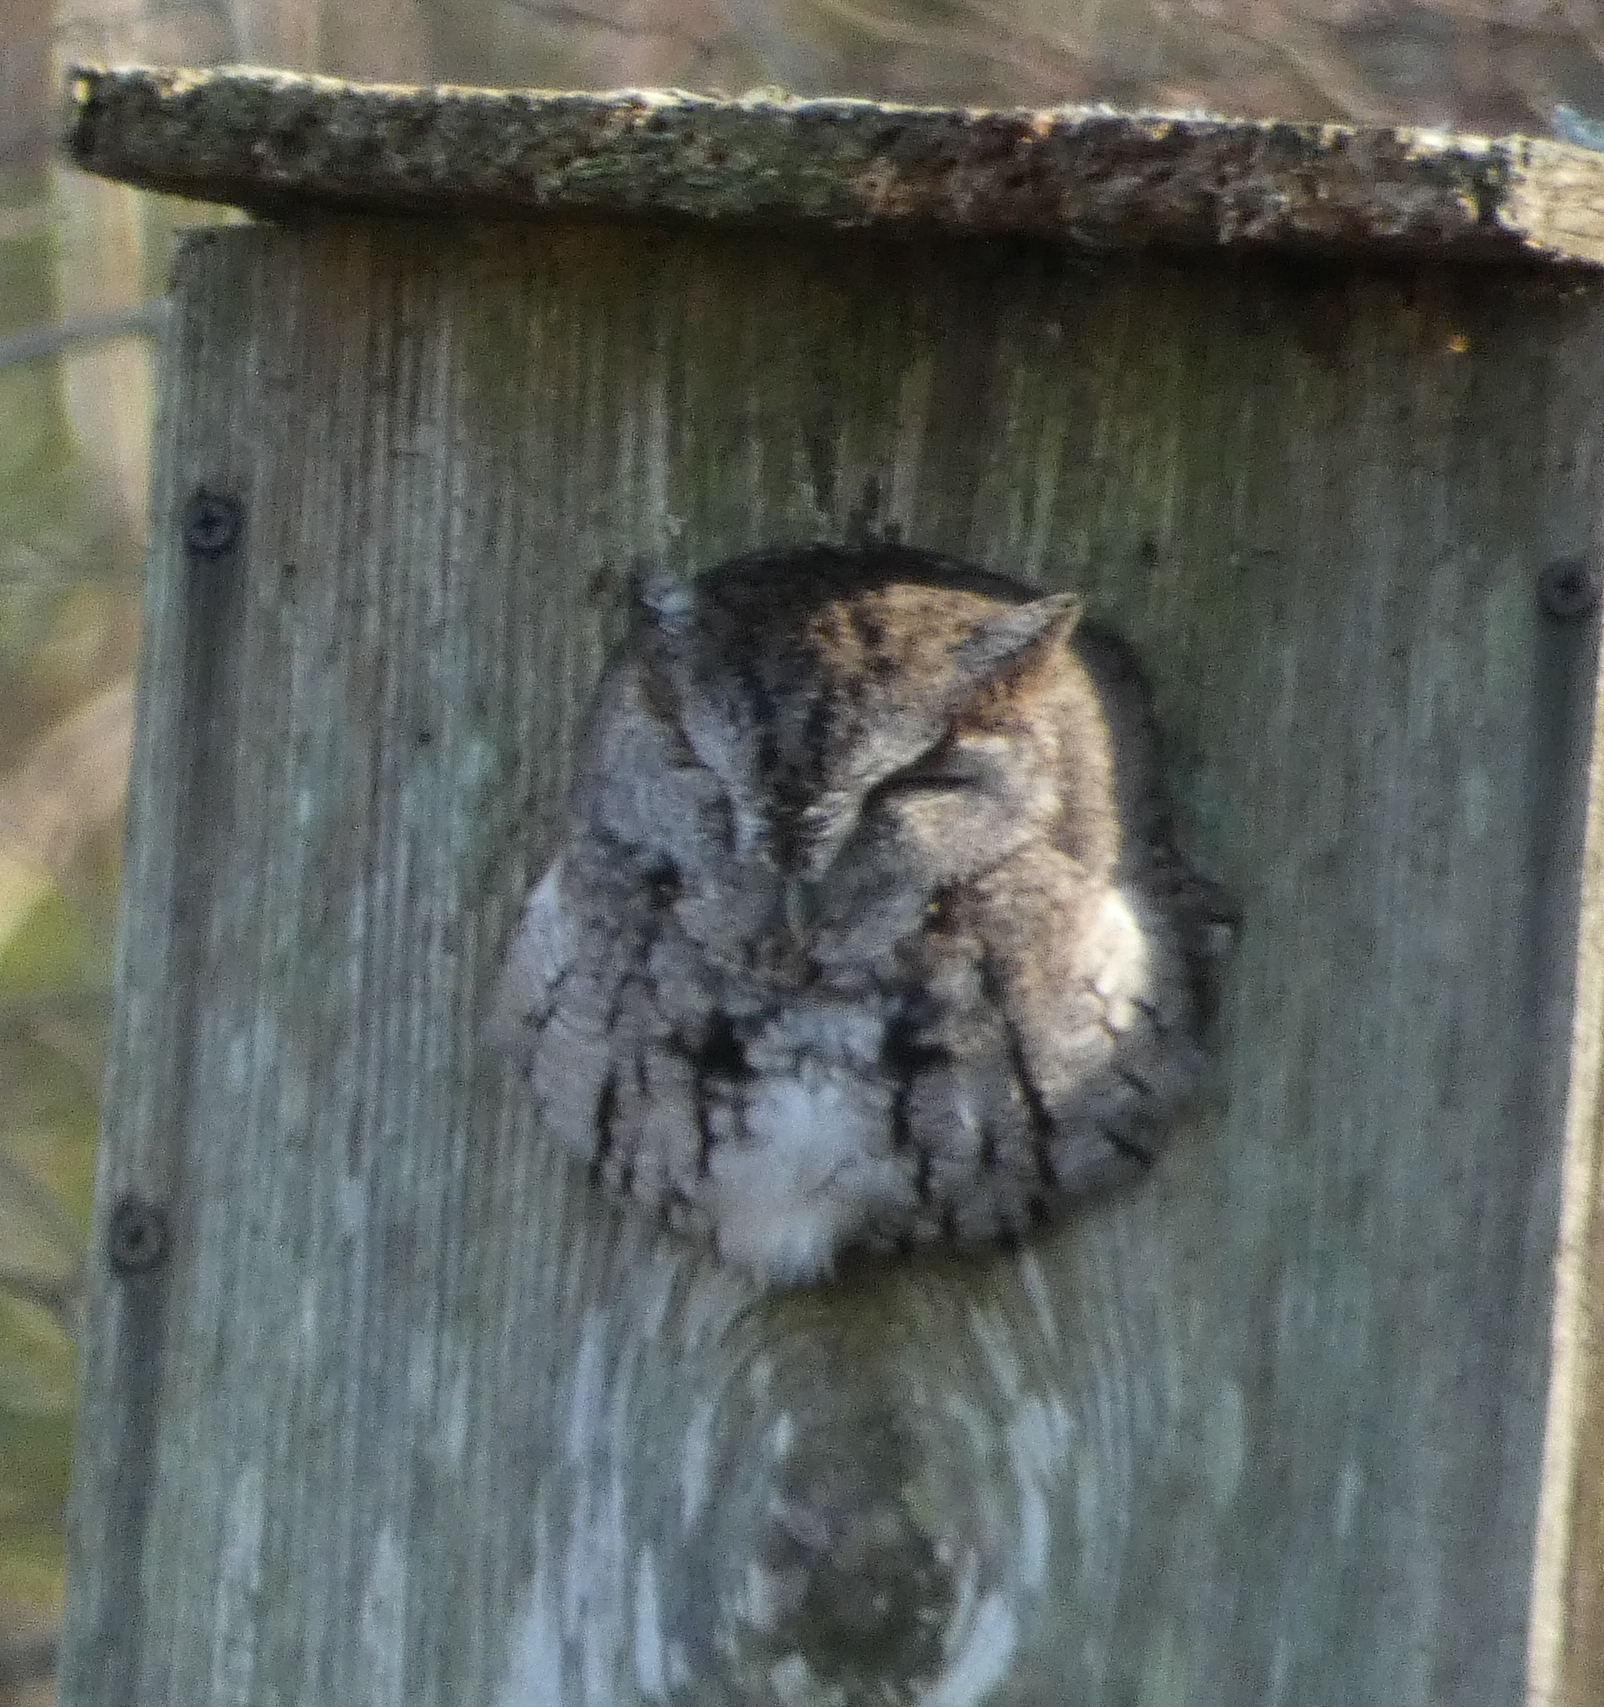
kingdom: Animalia
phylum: Chordata
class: Aves
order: Strigiformes
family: Strigidae
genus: Megascops
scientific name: Megascops asio
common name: Eastern screech-owl
